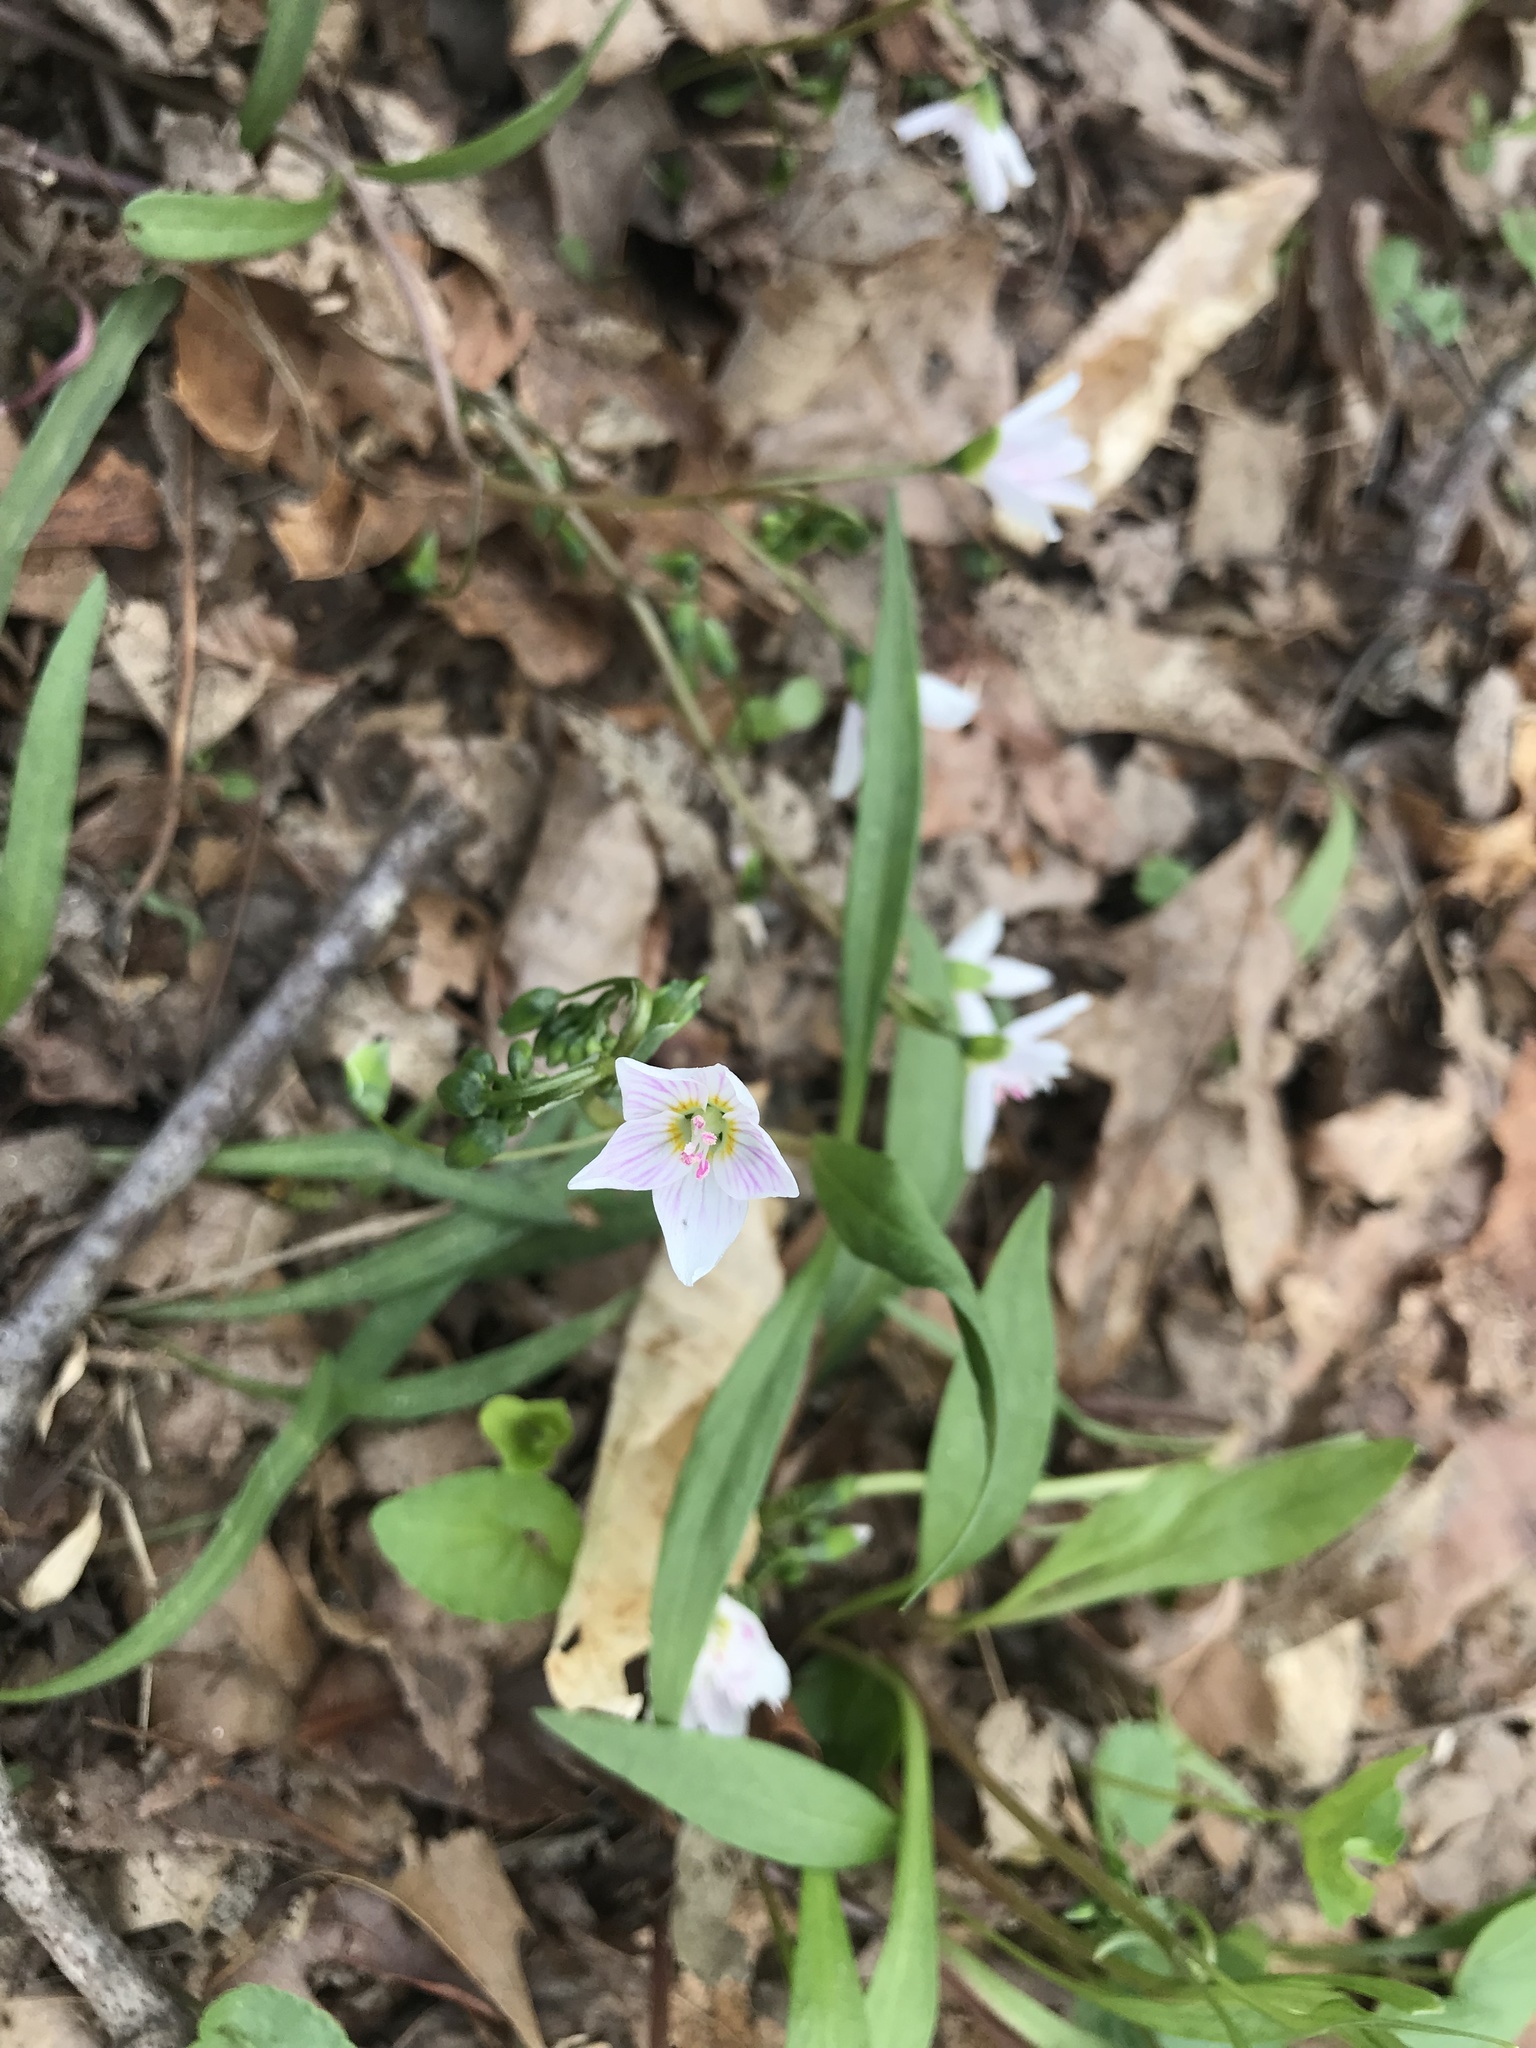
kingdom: Plantae
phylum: Tracheophyta
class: Magnoliopsida
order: Caryophyllales
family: Montiaceae
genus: Claytonia
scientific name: Claytonia virginica
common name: Virginia springbeauty
